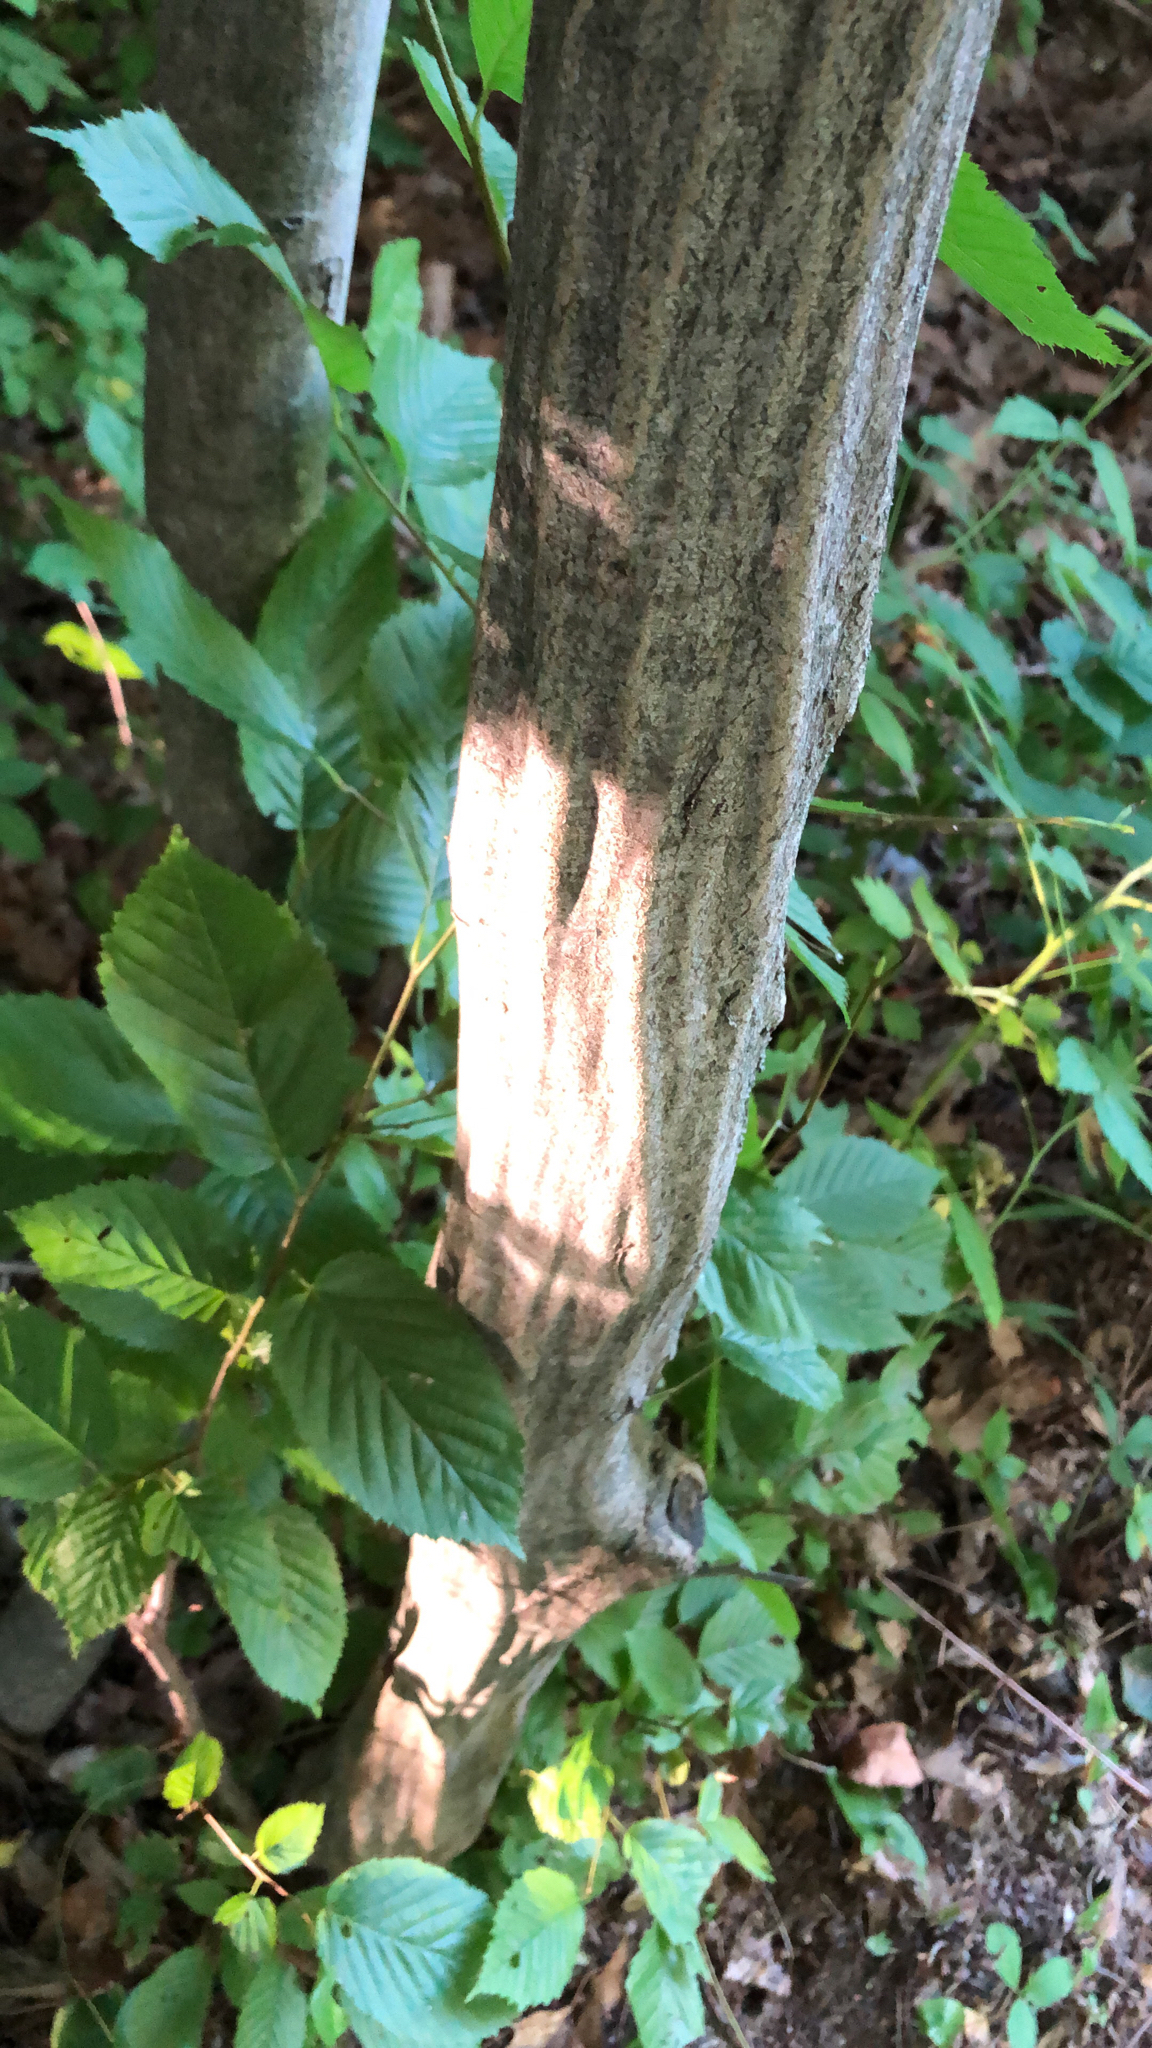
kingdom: Plantae
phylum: Tracheophyta
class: Magnoliopsida
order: Fagales
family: Betulaceae
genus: Carpinus
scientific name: Carpinus caroliniana
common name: American hornbeam
